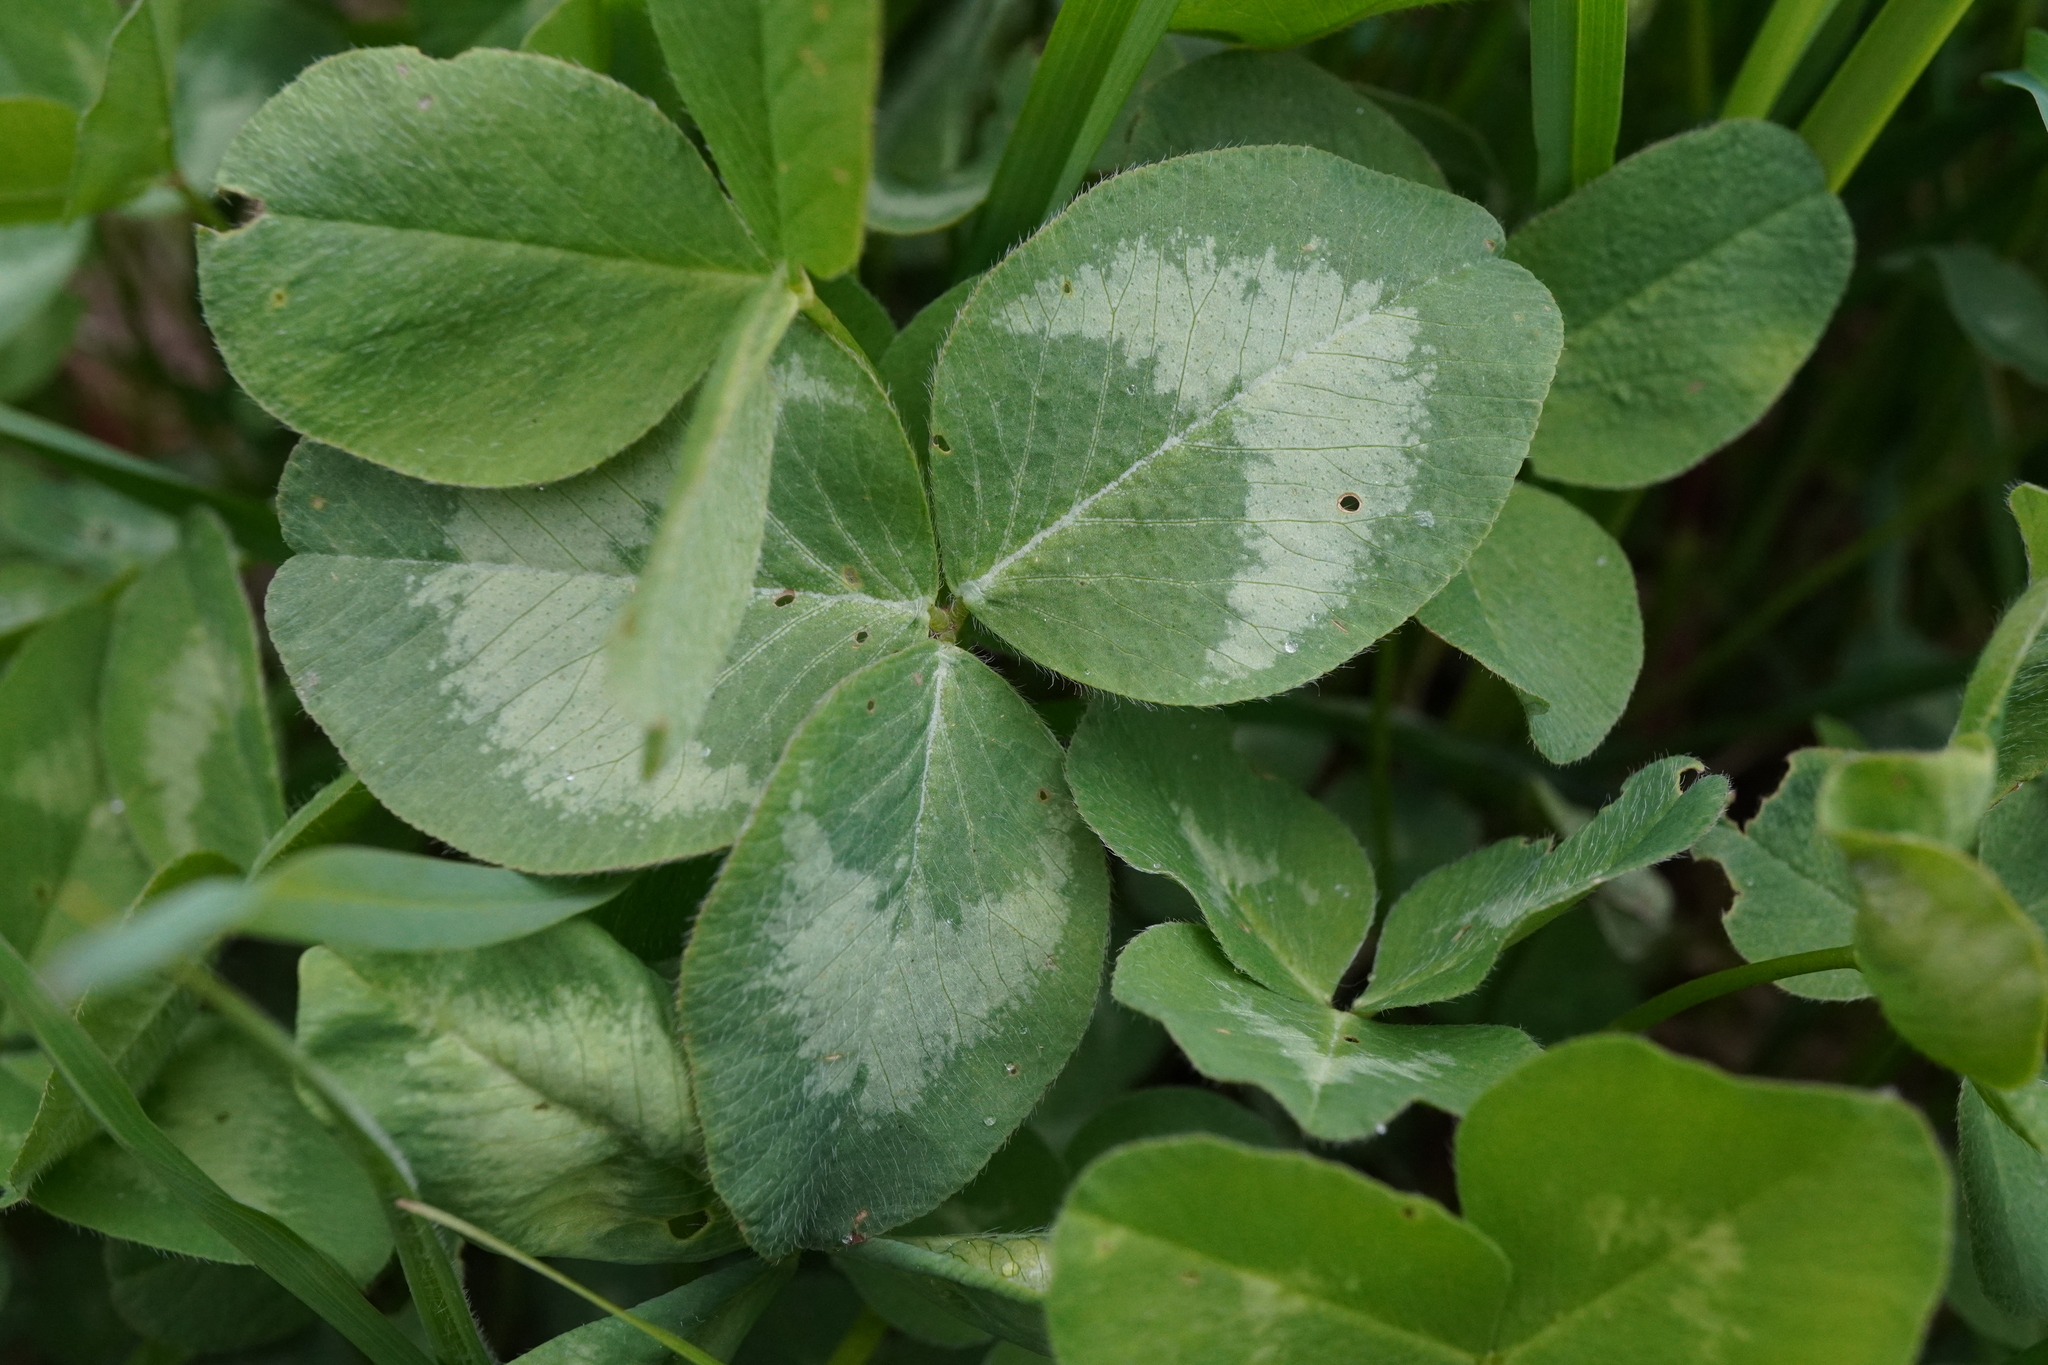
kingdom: Plantae
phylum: Tracheophyta
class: Magnoliopsida
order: Fabales
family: Fabaceae
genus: Trifolium
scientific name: Trifolium pratense
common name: Red clover
